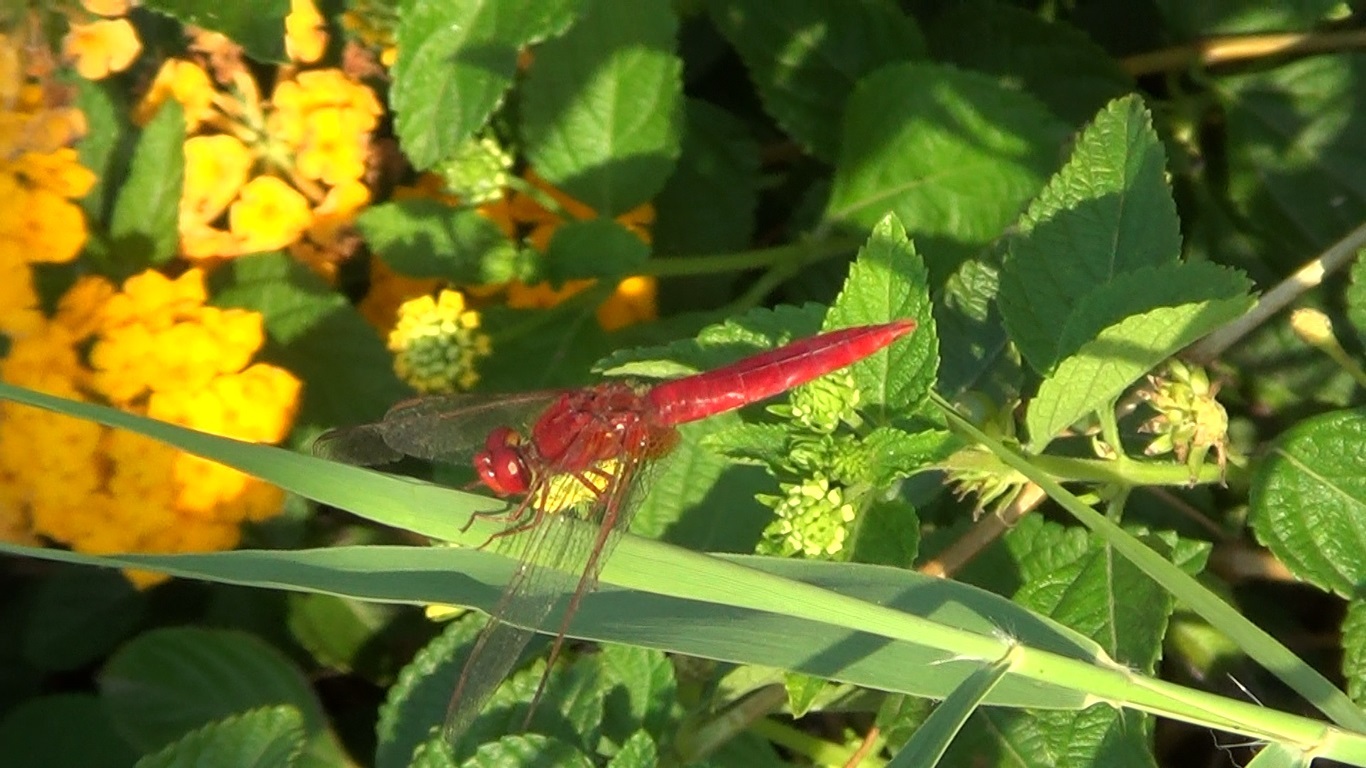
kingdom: Animalia
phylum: Arthropoda
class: Insecta
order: Odonata
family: Libellulidae
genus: Crocothemis
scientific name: Crocothemis erythraea
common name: Scarlet dragonfly
